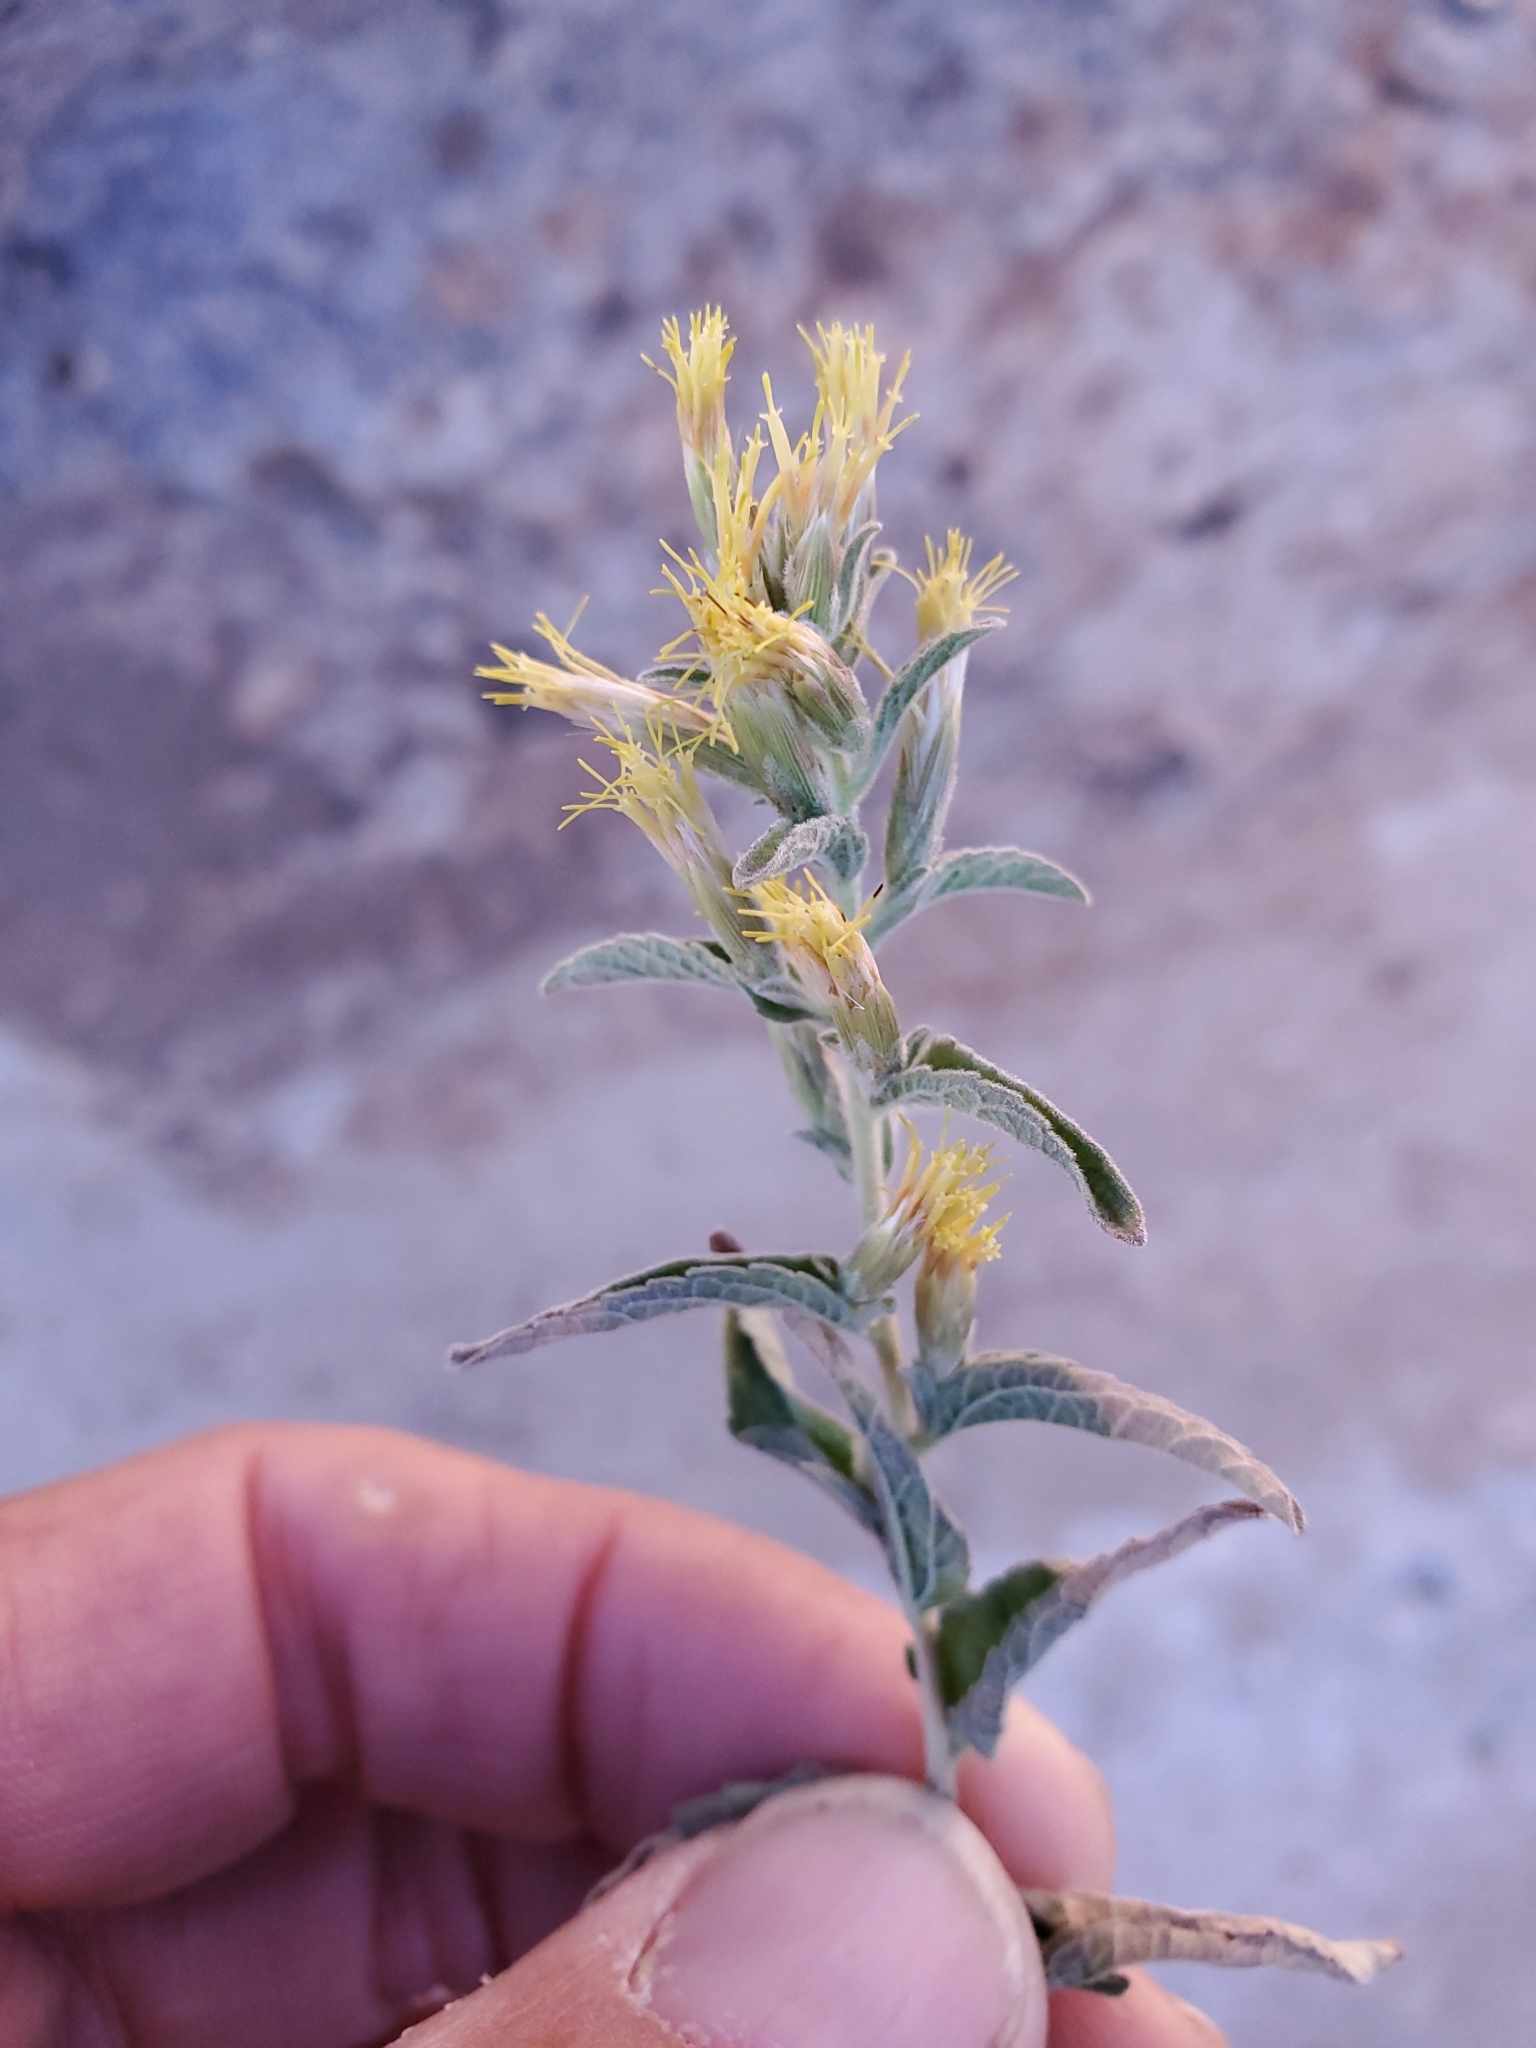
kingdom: Plantae
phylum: Tracheophyta
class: Magnoliopsida
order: Asterales
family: Asteraceae
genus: Brickellia
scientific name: Brickellia lemmonii
